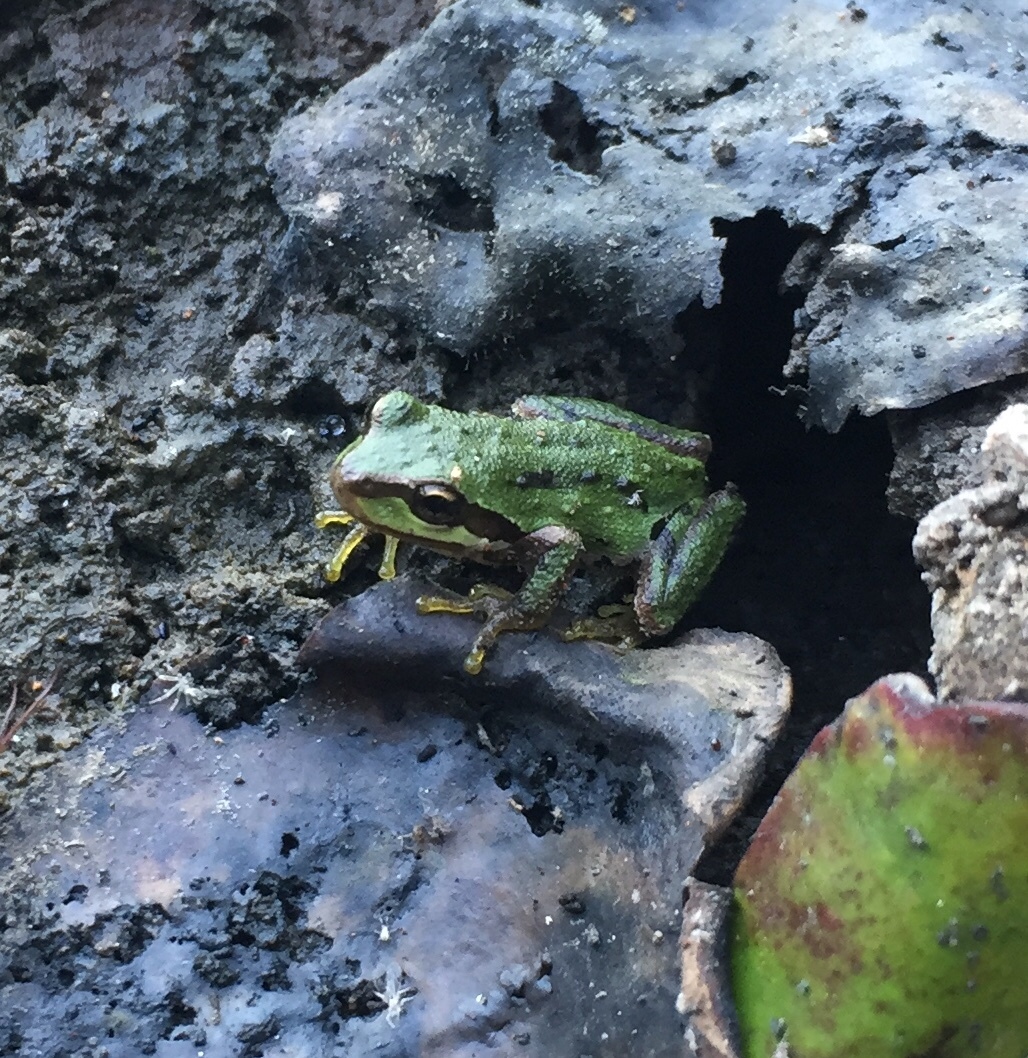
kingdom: Animalia
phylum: Chordata
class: Amphibia
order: Anura
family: Hylidae
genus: Pseudacris
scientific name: Pseudacris regilla
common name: Pacific chorus frog
